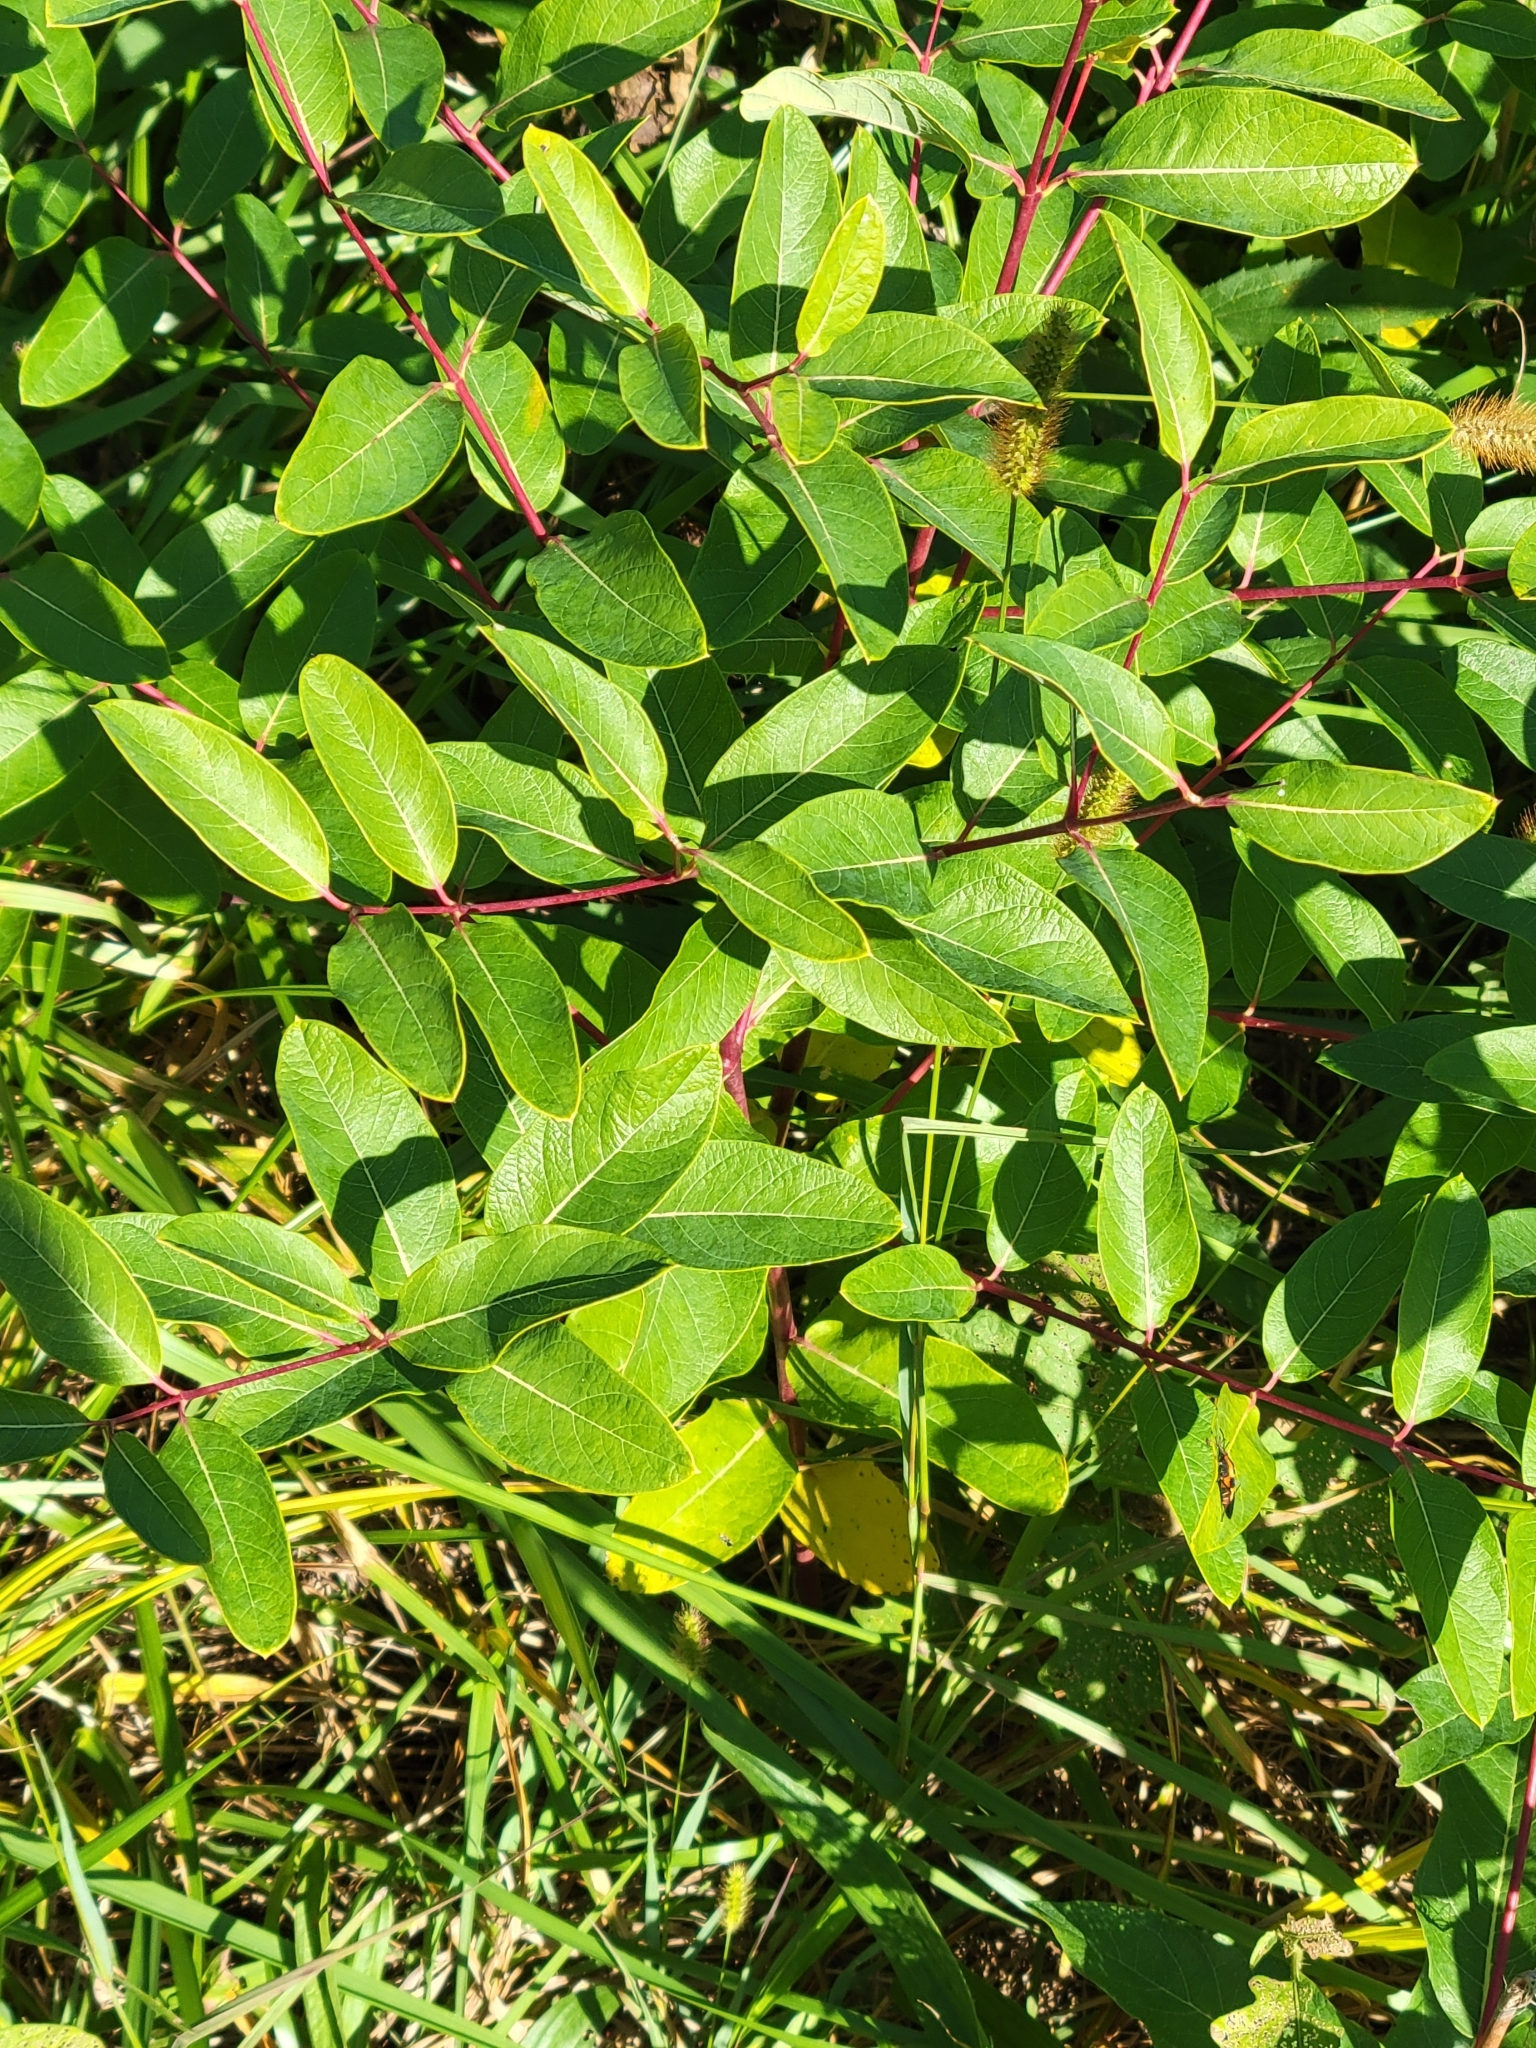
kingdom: Plantae
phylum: Tracheophyta
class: Magnoliopsida
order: Gentianales
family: Apocynaceae
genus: Apocynum
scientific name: Apocynum cannabinum
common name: Hemp dogbane
